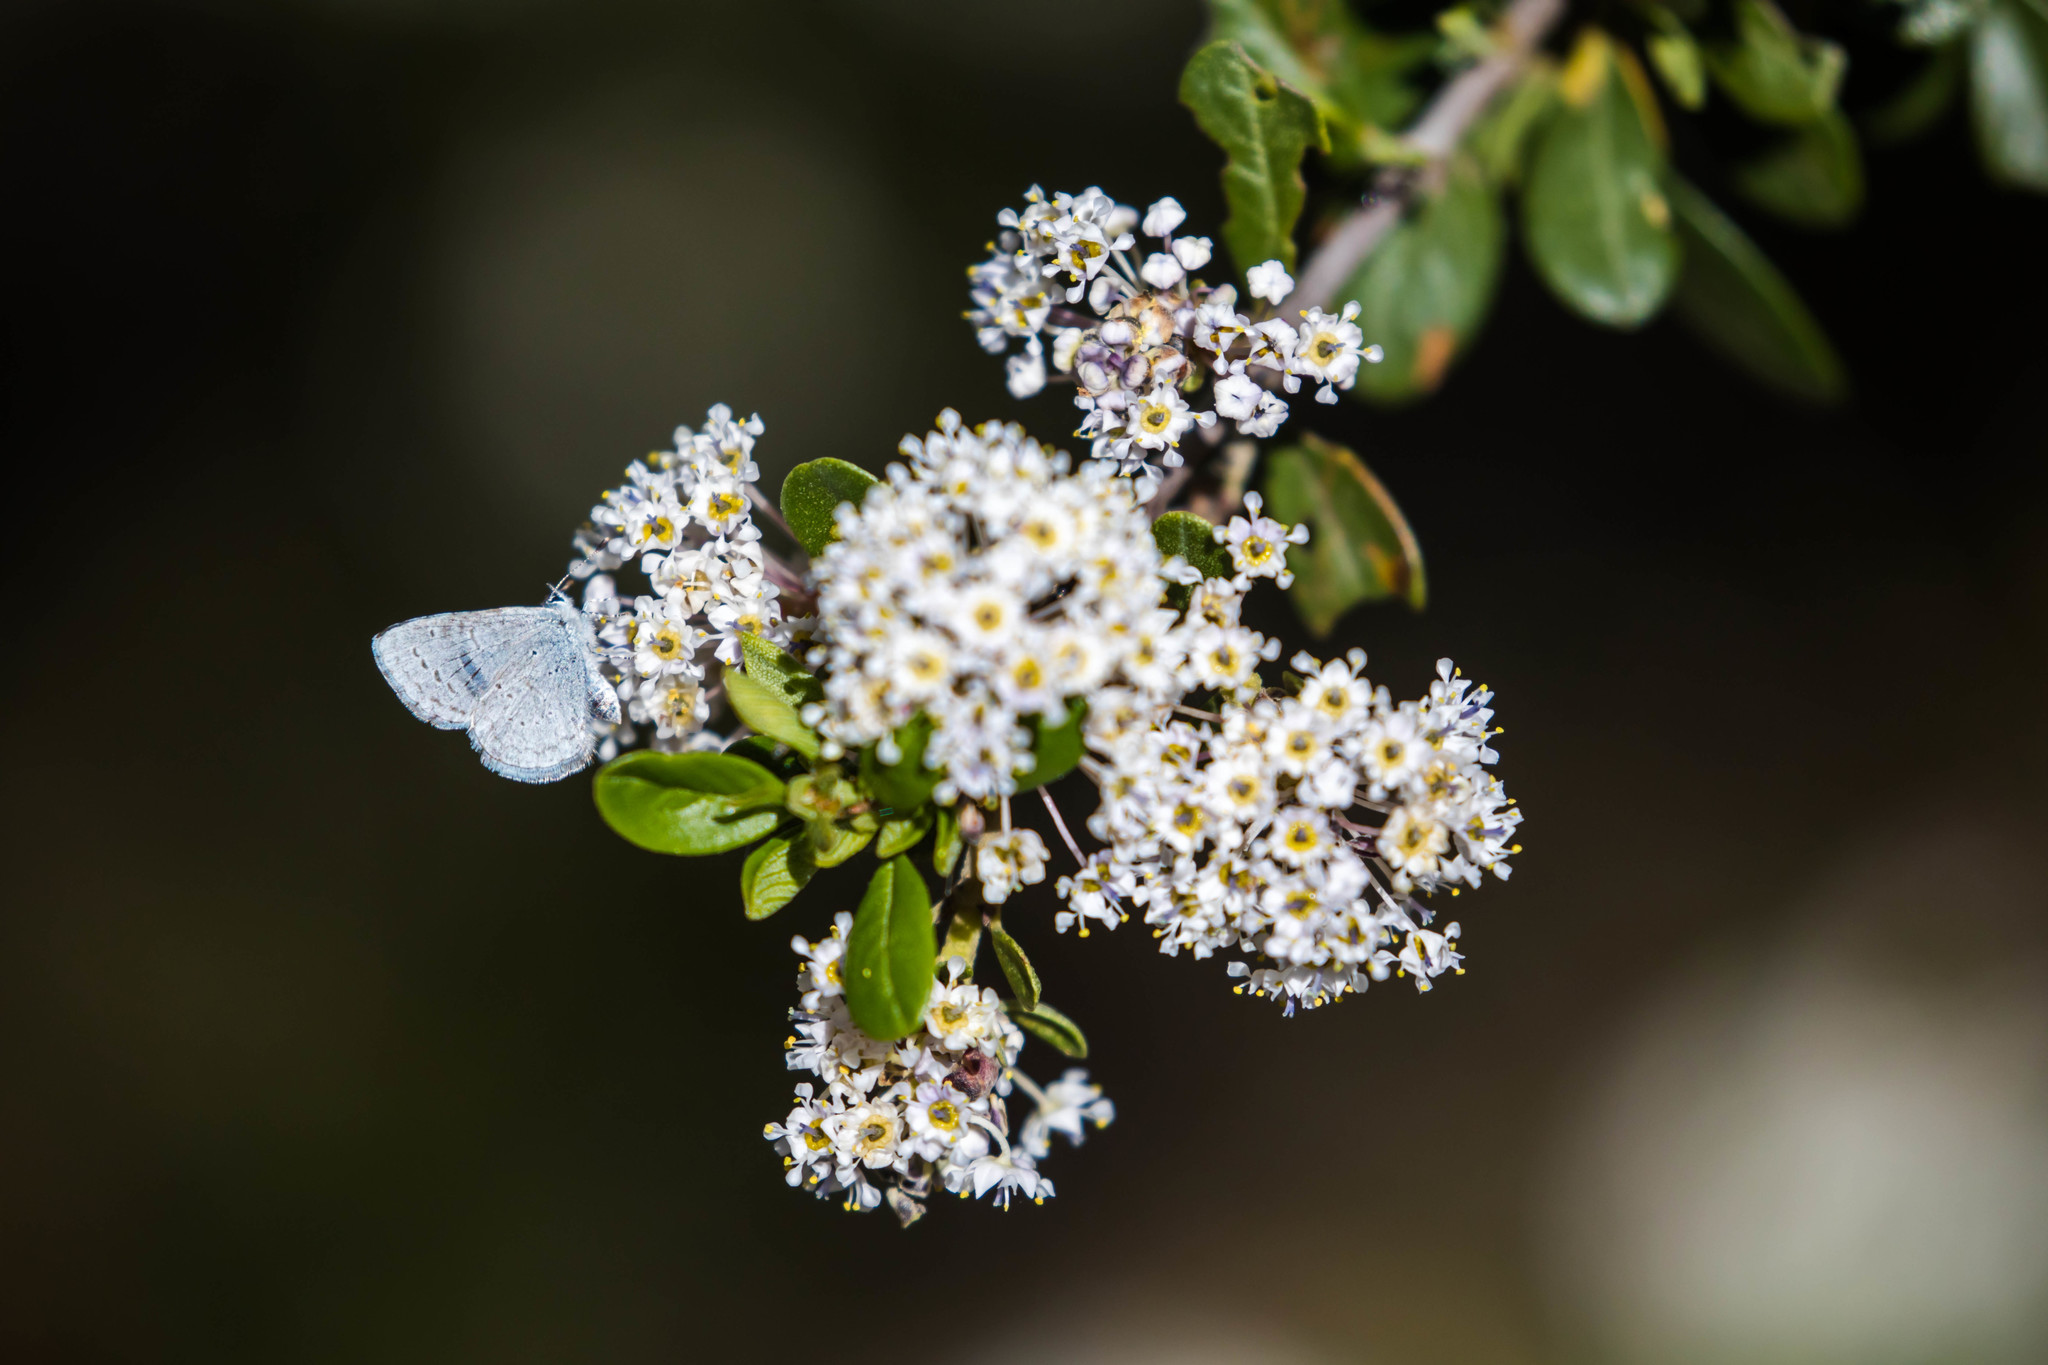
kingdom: Animalia
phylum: Arthropoda
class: Insecta
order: Lepidoptera
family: Lycaenidae
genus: Celastrina
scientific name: Celastrina ladon
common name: Spring azure
